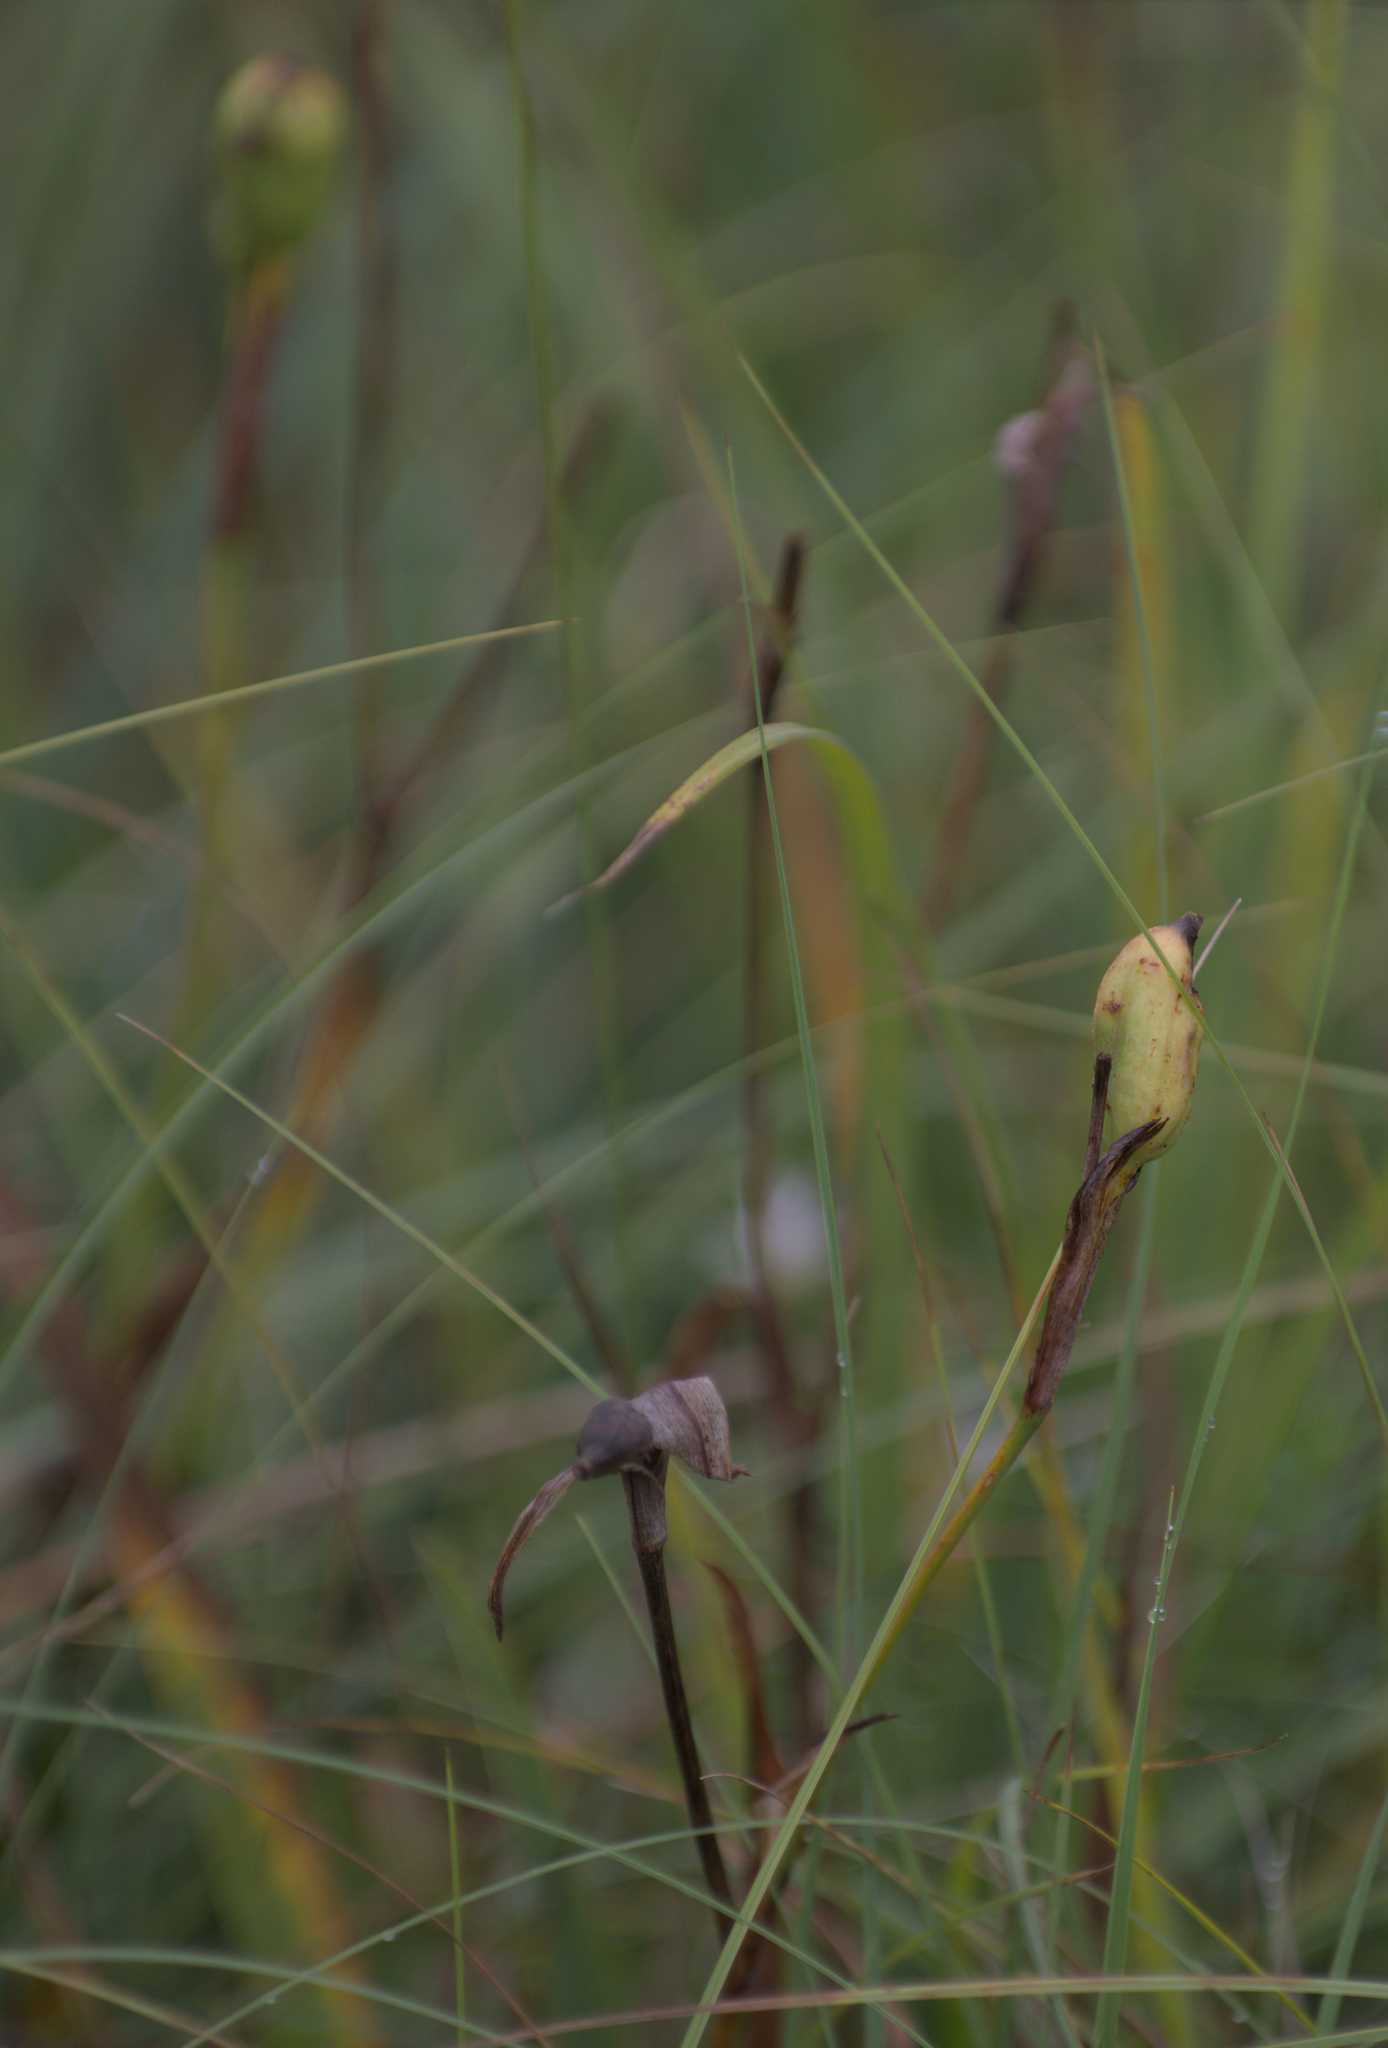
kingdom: Plantae
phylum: Tracheophyta
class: Liliopsida
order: Asparagales
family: Iridaceae
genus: Iris
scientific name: Iris versicolor
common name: Purple iris
